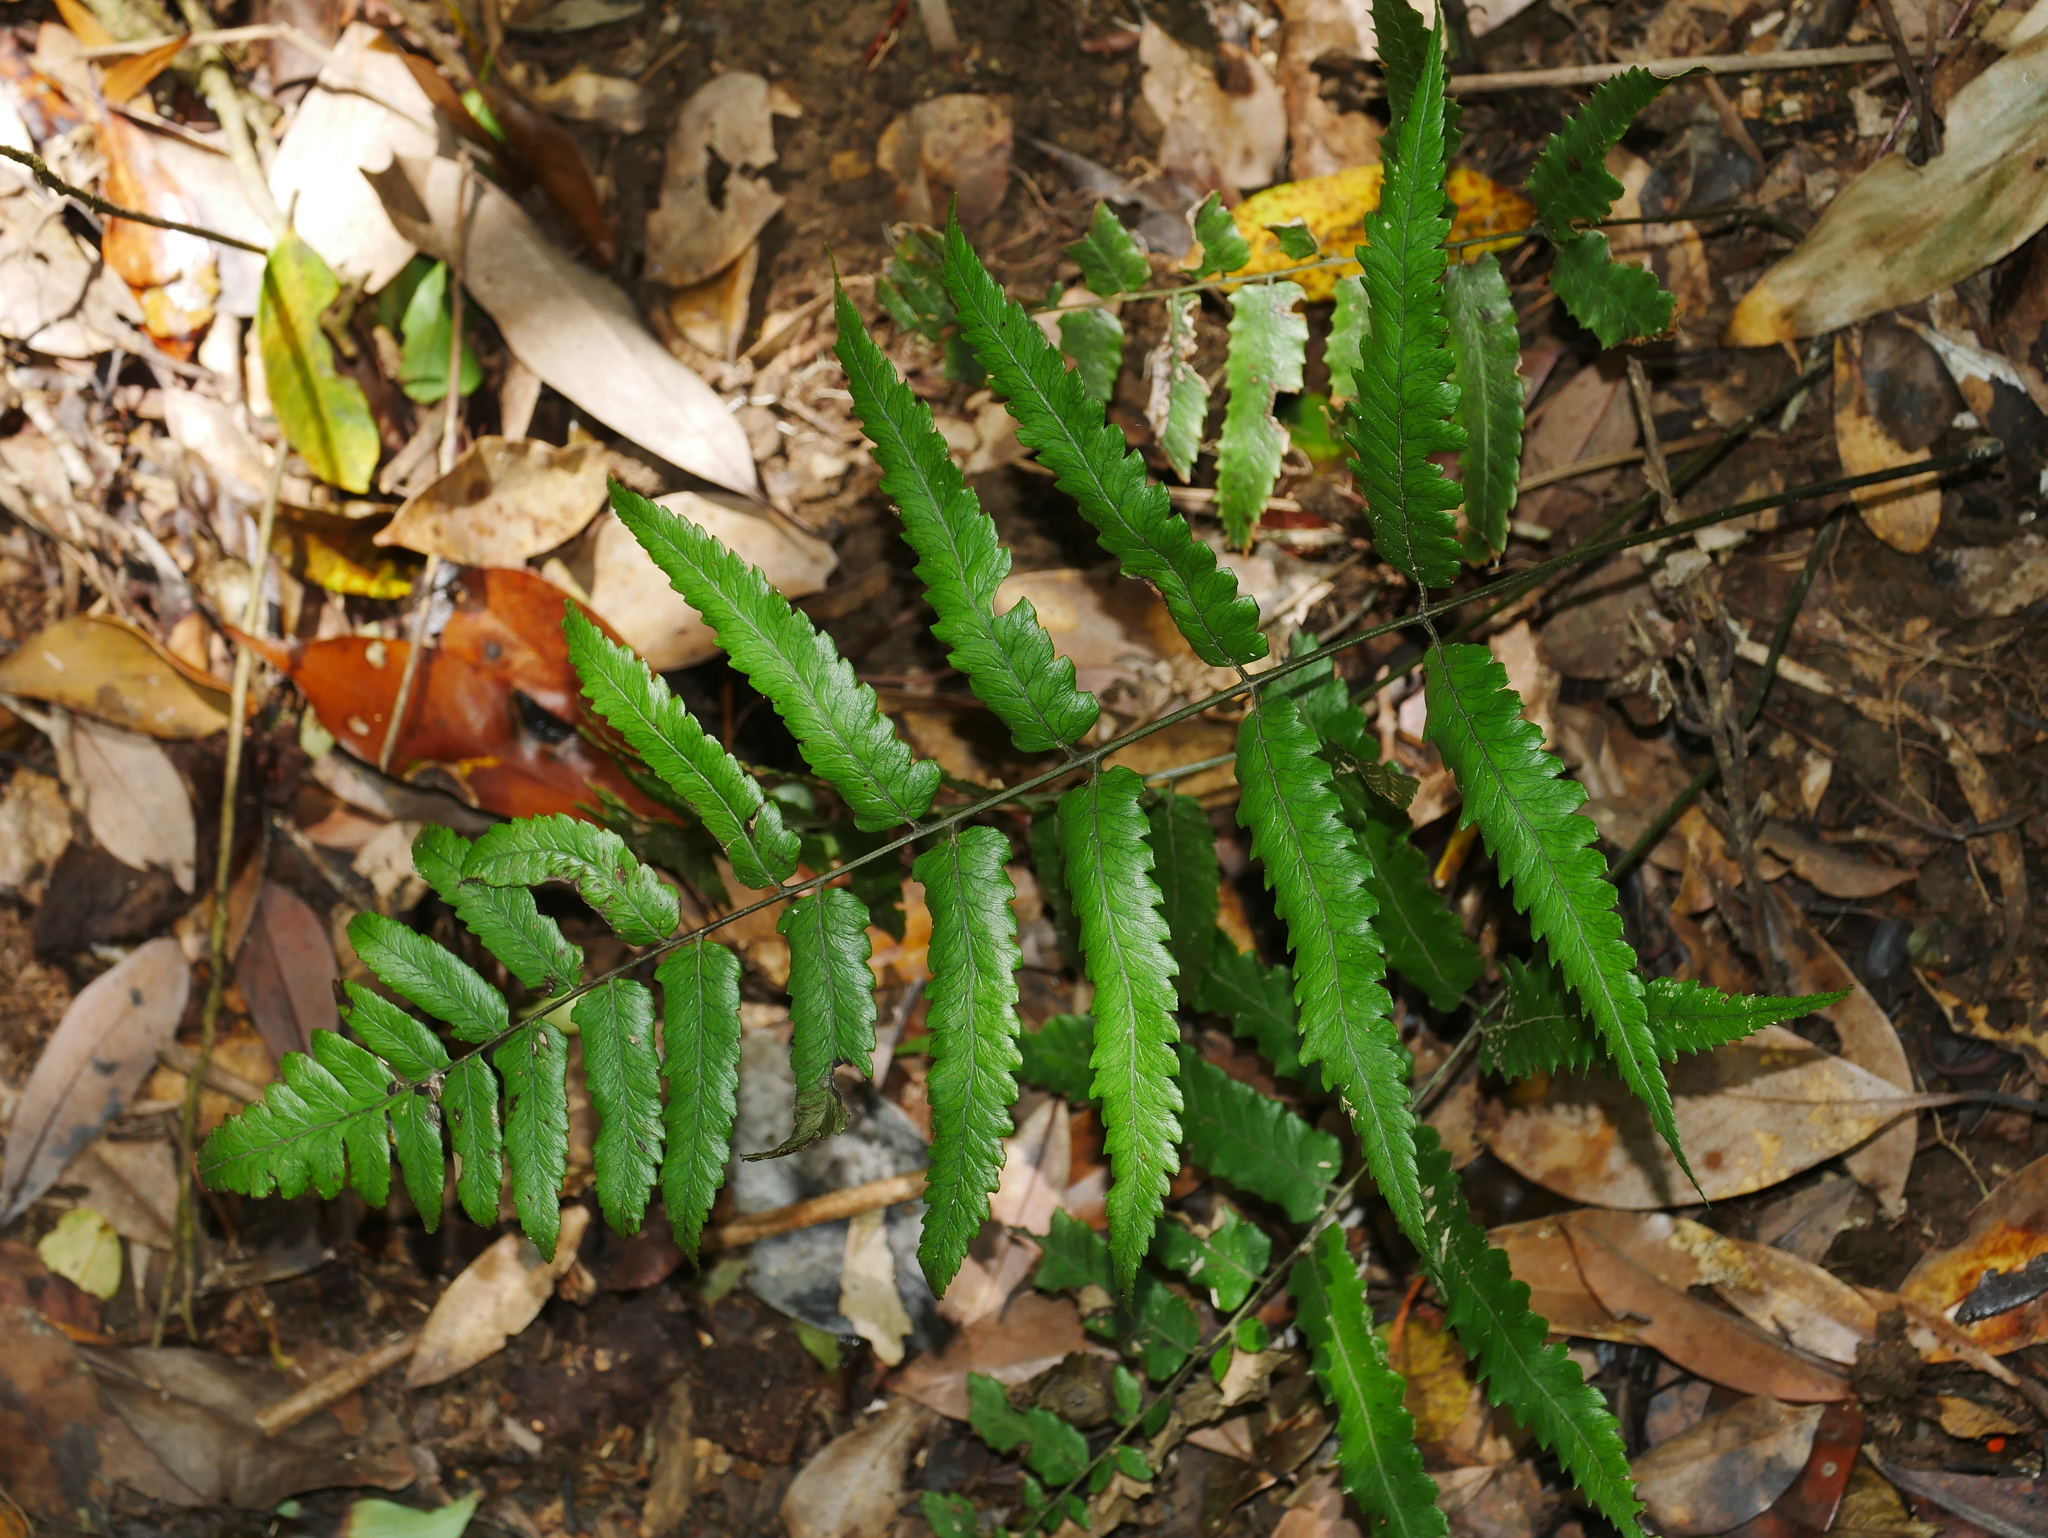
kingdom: Plantae
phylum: Tracheophyta
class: Polypodiopsida
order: Polypodiales
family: Athyriaceae
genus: Diplazium
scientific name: Diplazium fauriei
